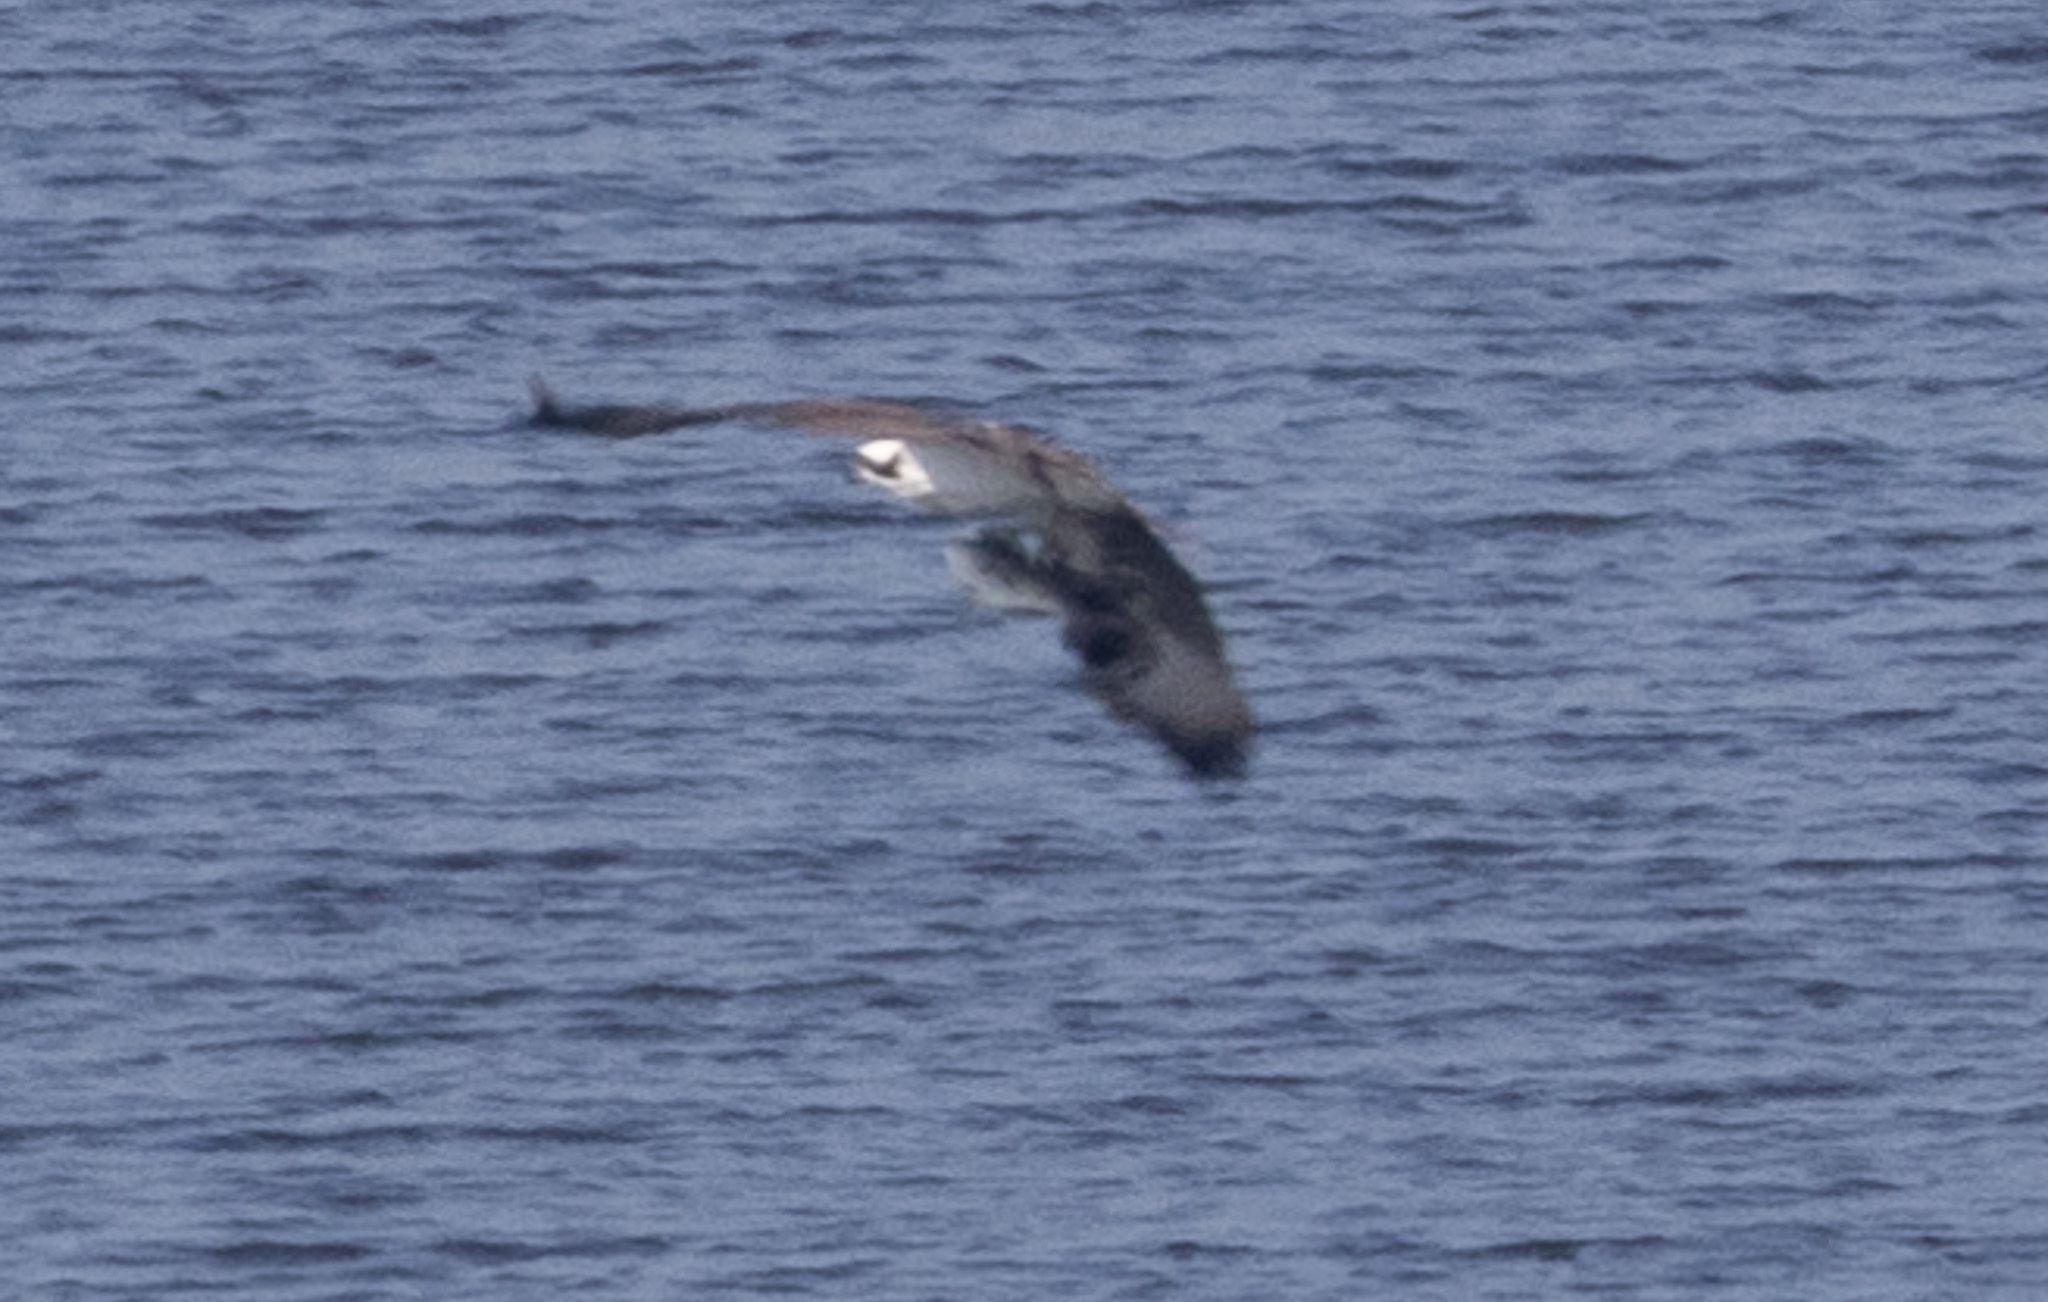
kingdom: Animalia
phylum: Chordata
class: Aves
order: Accipitriformes
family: Pandionidae
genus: Pandion
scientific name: Pandion haliaetus
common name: Osprey
